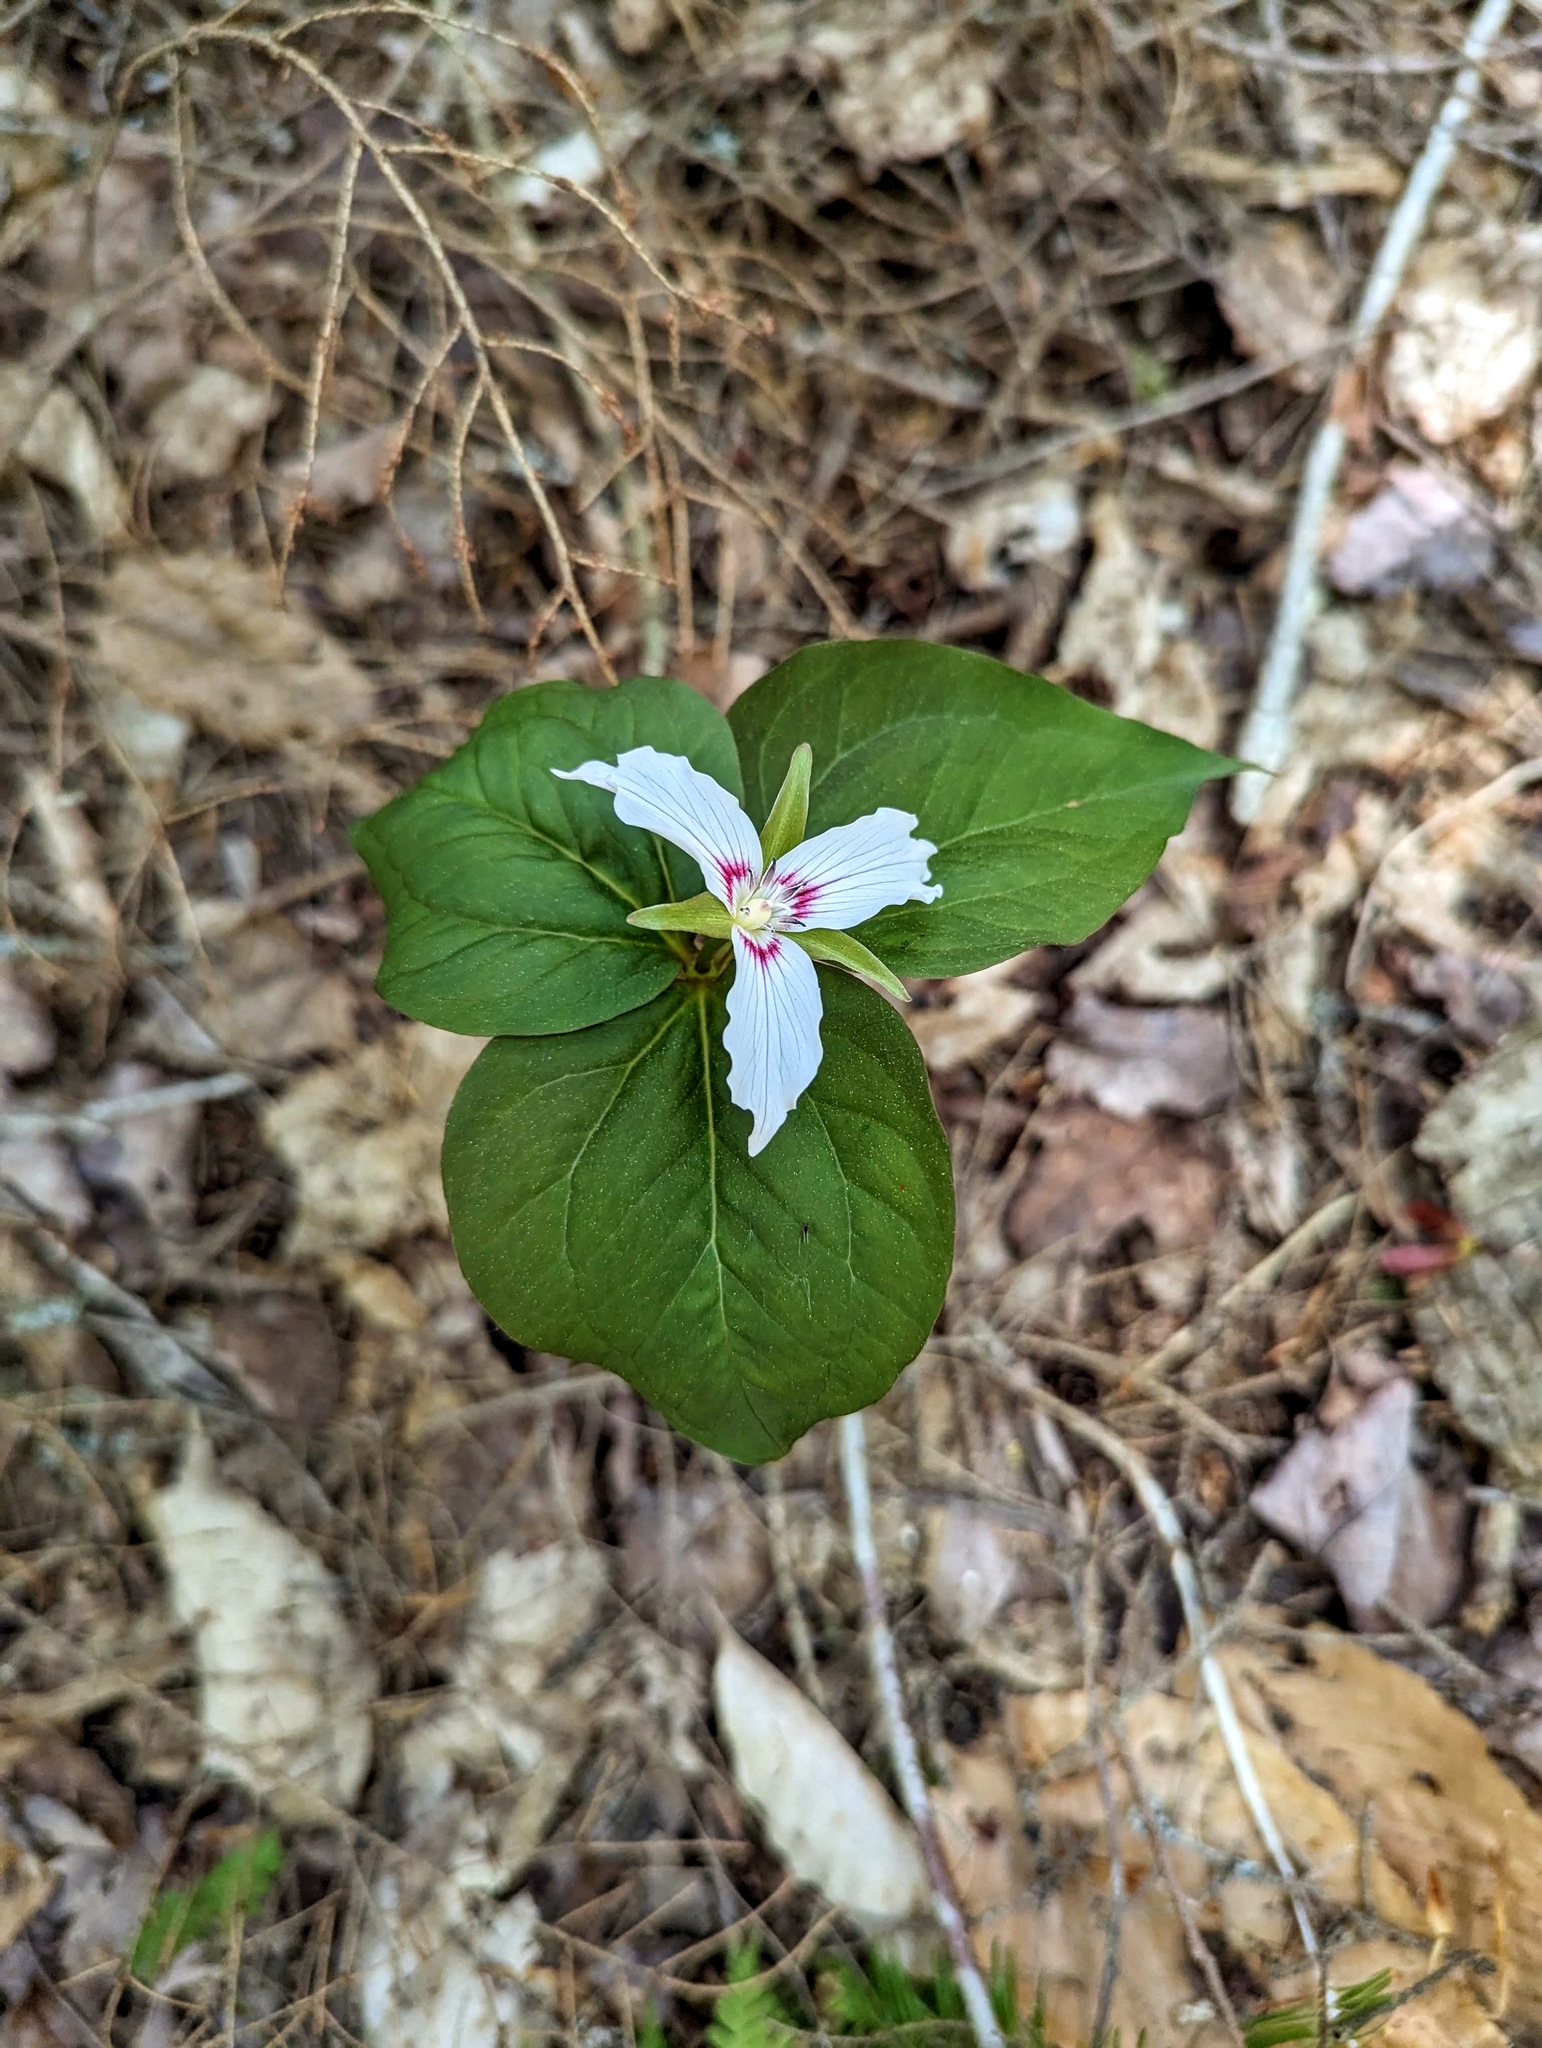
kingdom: Plantae
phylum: Tracheophyta
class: Liliopsida
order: Liliales
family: Melanthiaceae
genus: Trillium
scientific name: Trillium undulatum
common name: Paint trillium
